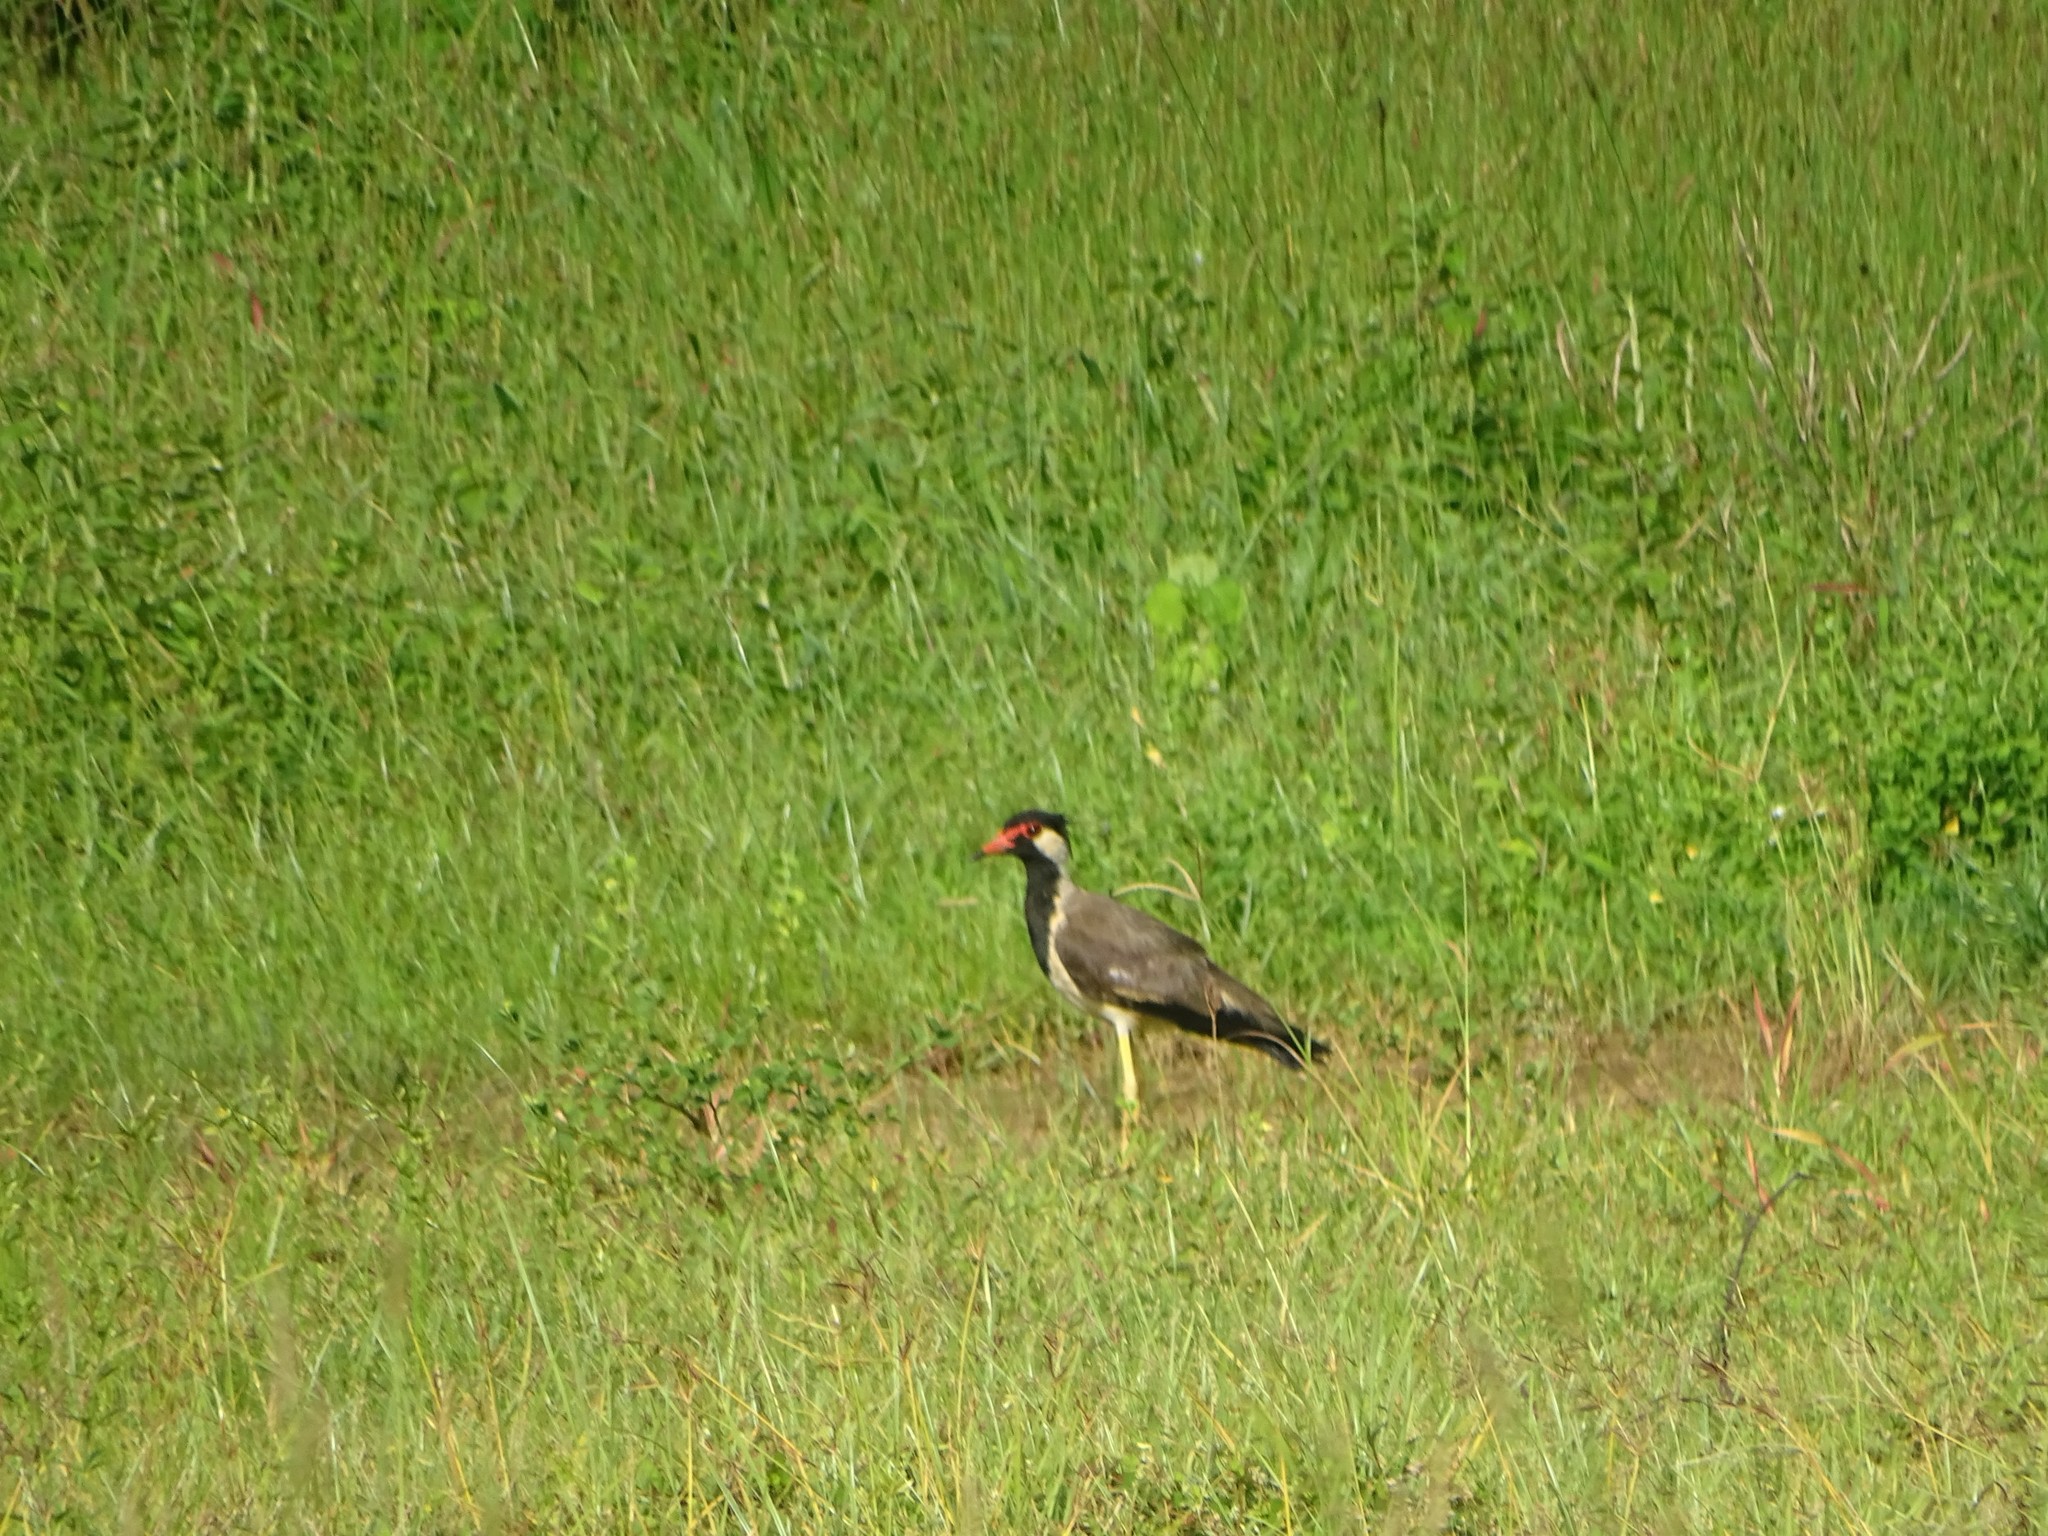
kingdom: Animalia
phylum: Chordata
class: Aves
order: Charadriiformes
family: Charadriidae
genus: Vanellus
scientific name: Vanellus indicus
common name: Red-wattled lapwing
